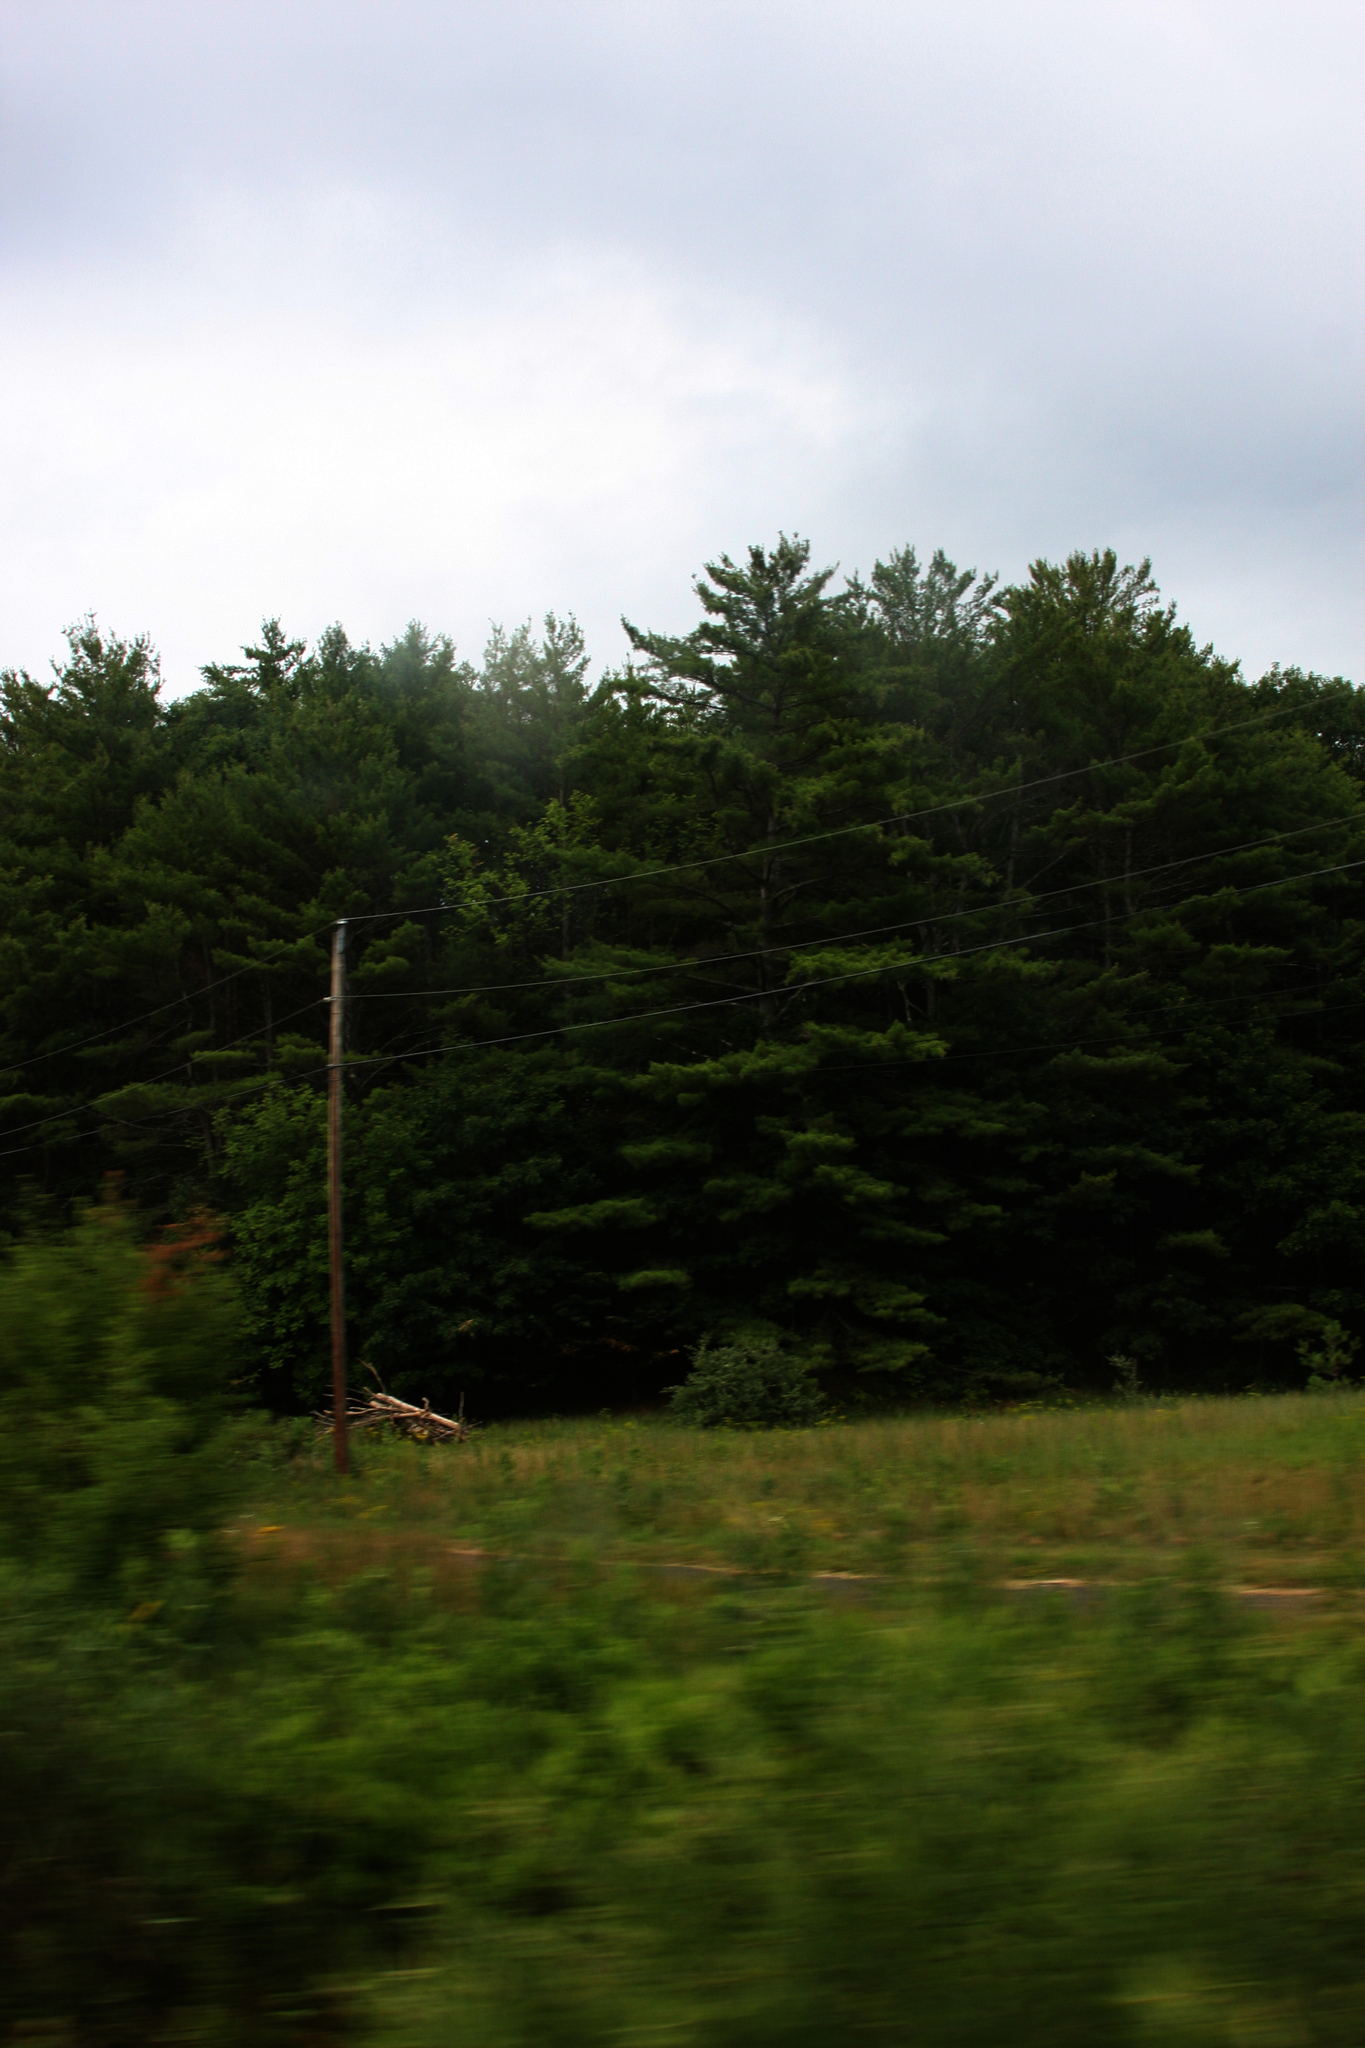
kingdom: Plantae
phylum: Tracheophyta
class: Pinopsida
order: Pinales
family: Pinaceae
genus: Pinus
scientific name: Pinus strobus
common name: Weymouth pine
